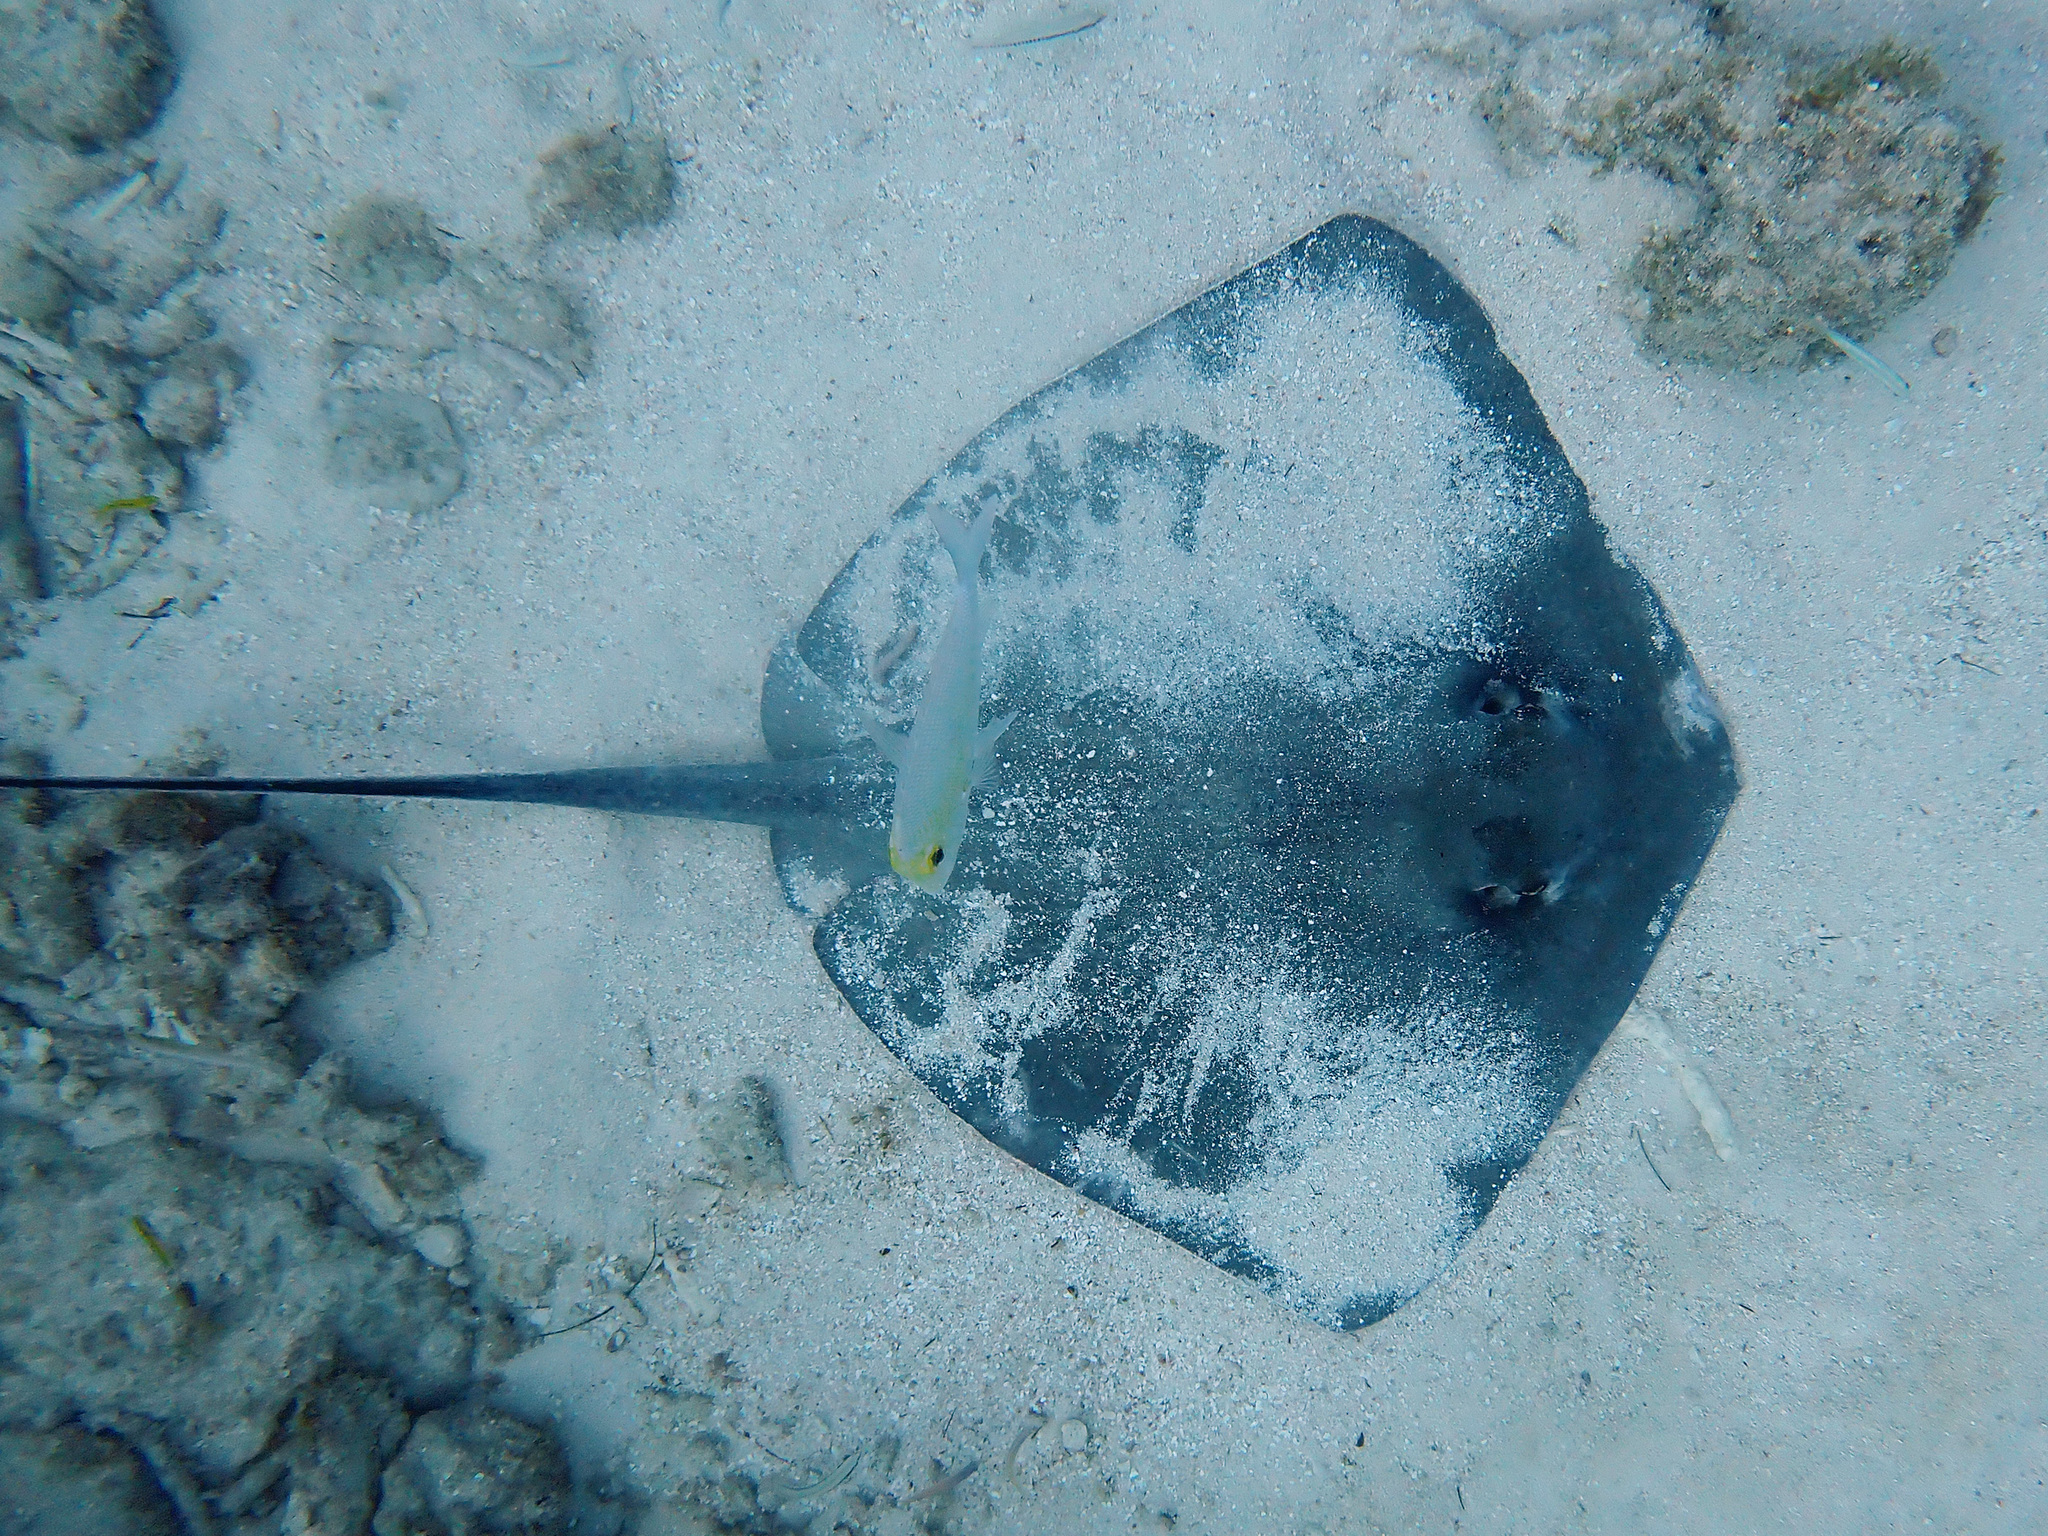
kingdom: Animalia
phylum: Chordata
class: Elasmobranchii
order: Myliobatiformes
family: Dasyatidae
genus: Hypanus
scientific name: Hypanus americanus
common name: Southern stingray
